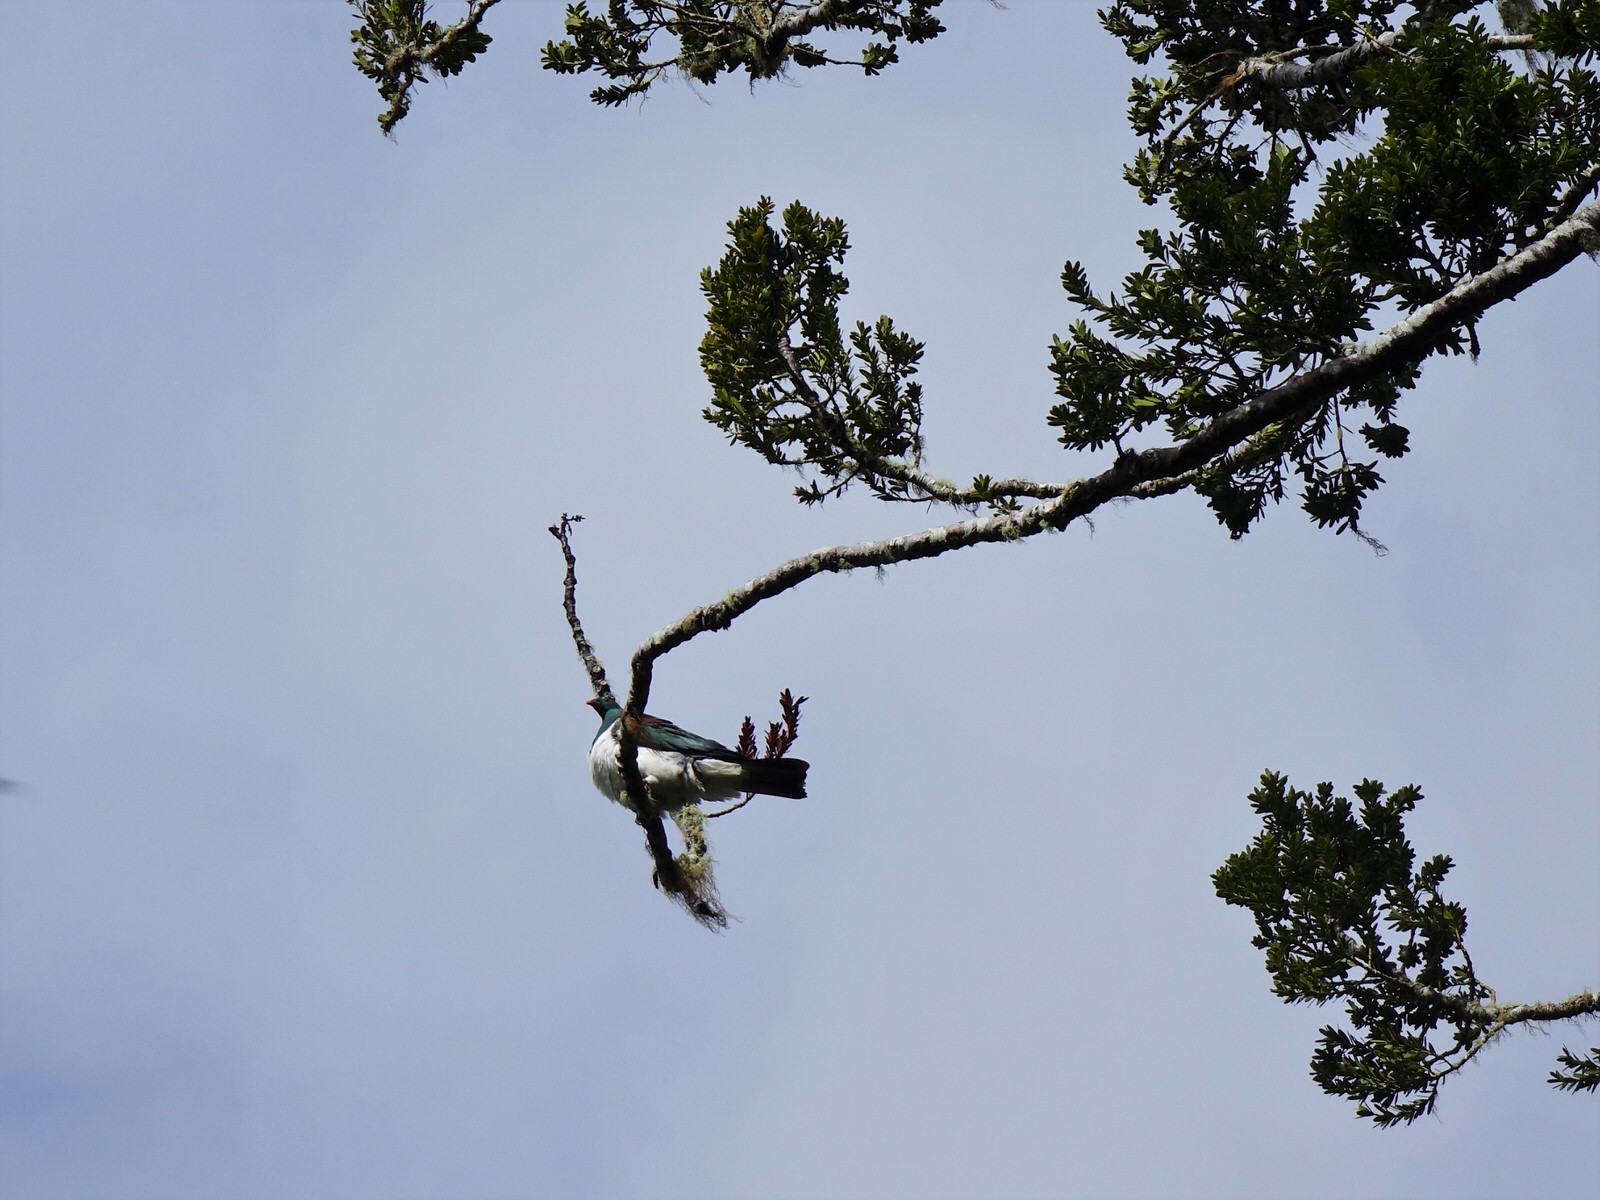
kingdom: Animalia
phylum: Chordata
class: Aves
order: Columbiformes
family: Columbidae
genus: Hemiphaga
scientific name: Hemiphaga novaeseelandiae
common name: New zealand pigeon
